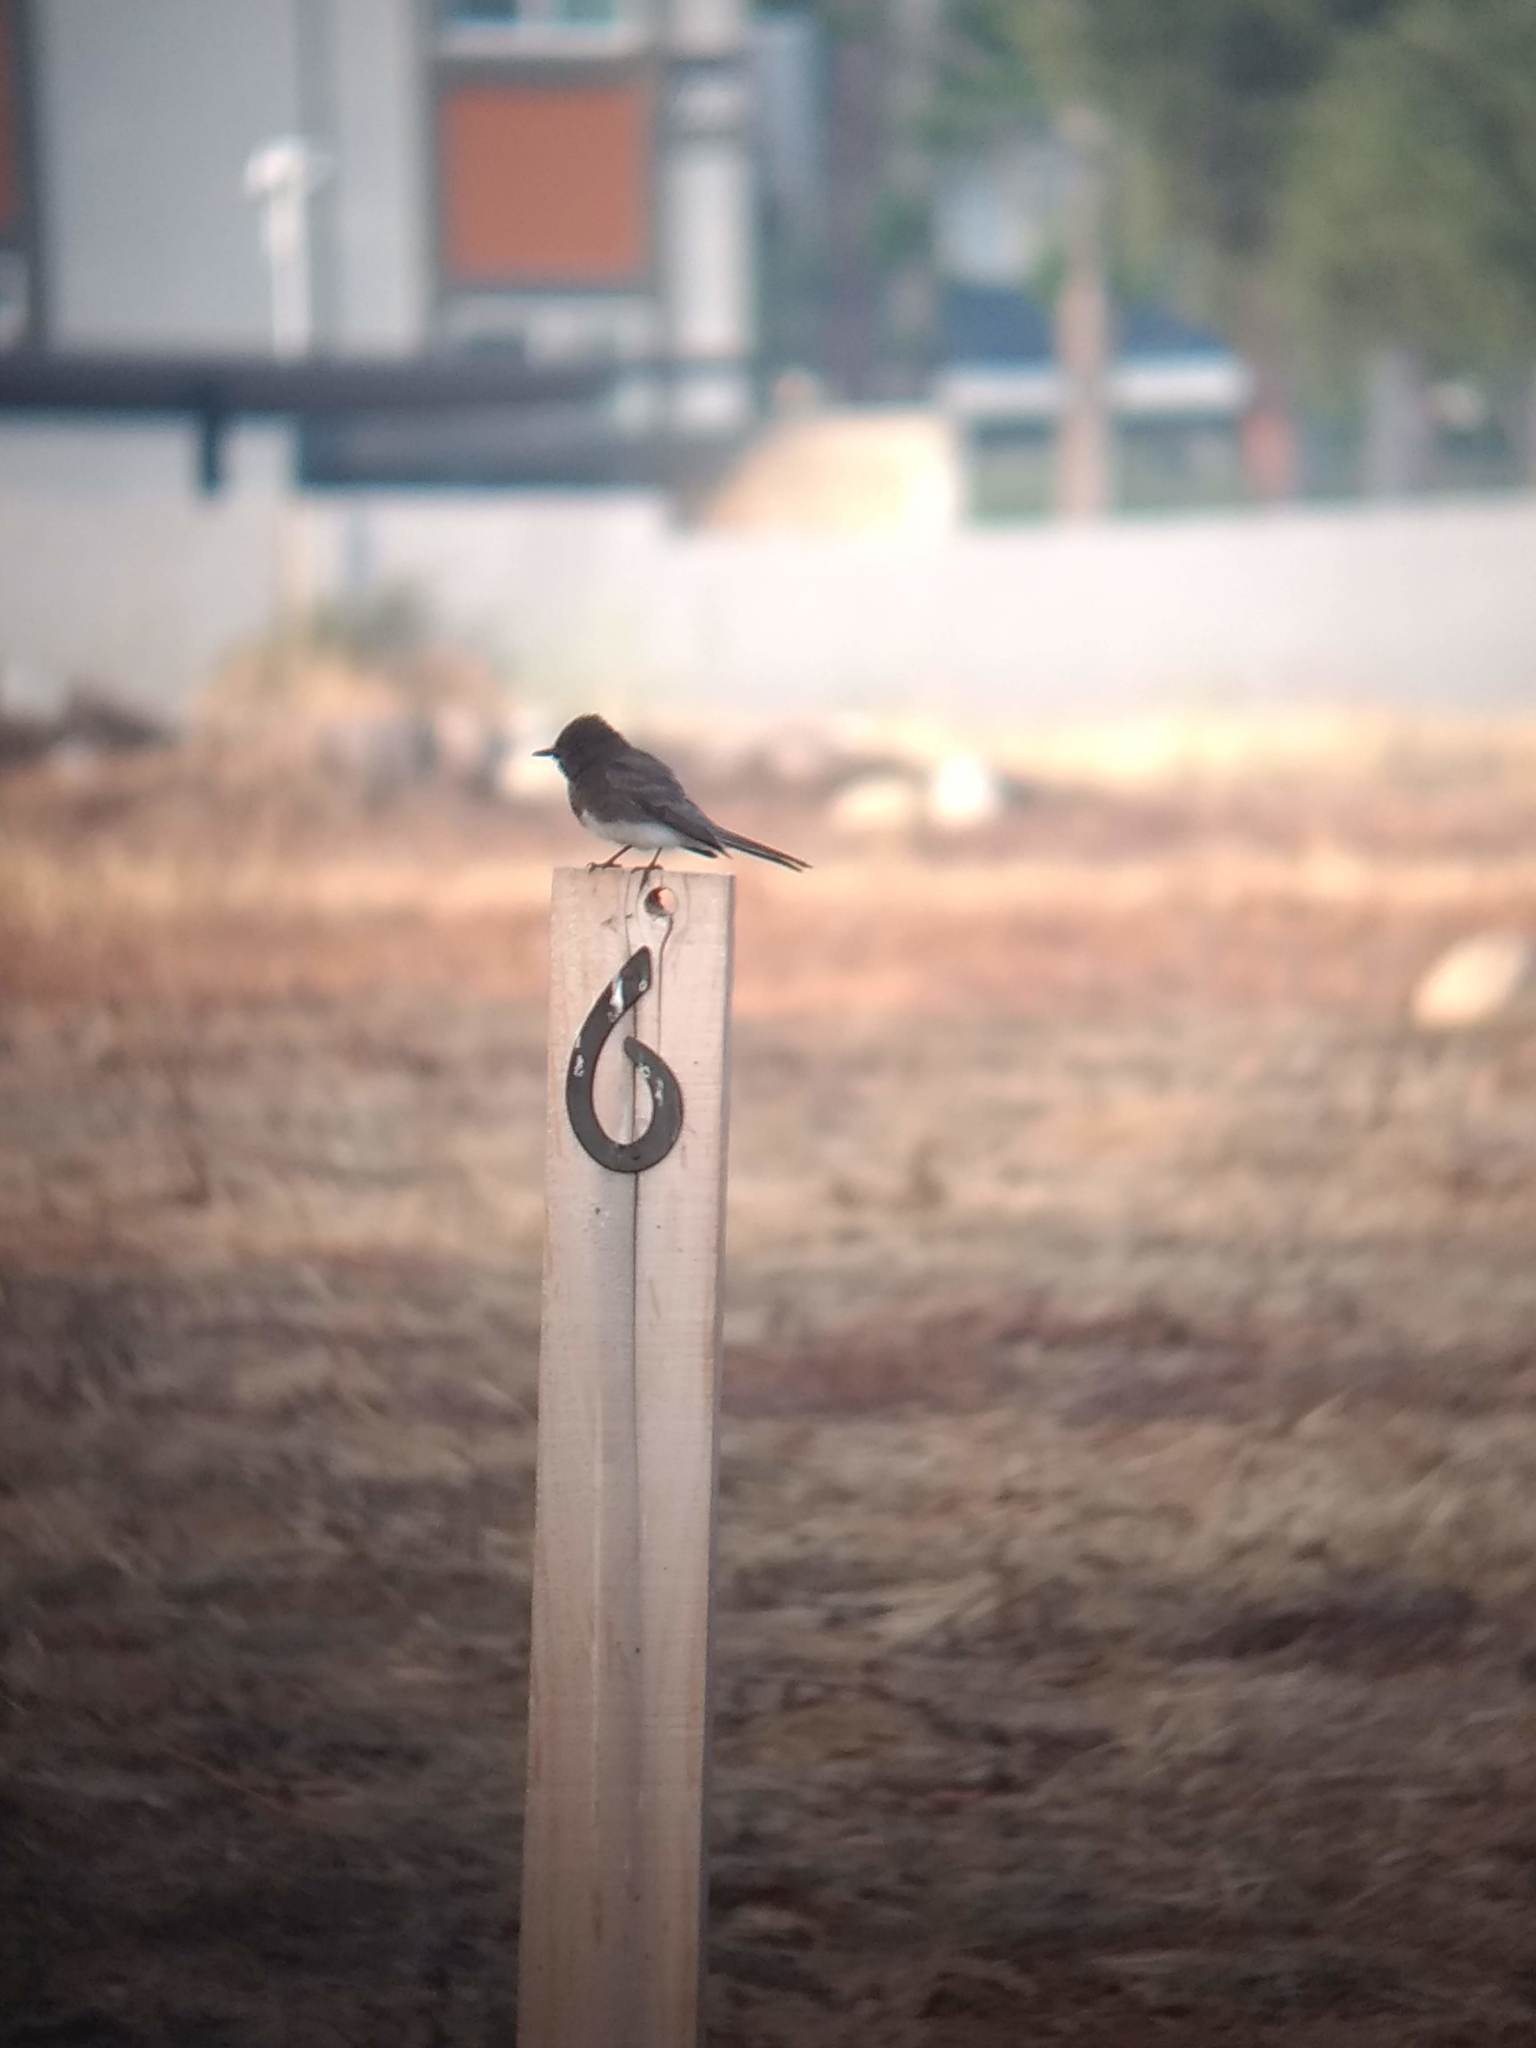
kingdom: Animalia
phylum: Chordata
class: Aves
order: Passeriformes
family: Tyrannidae
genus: Sayornis
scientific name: Sayornis nigricans
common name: Black phoebe
